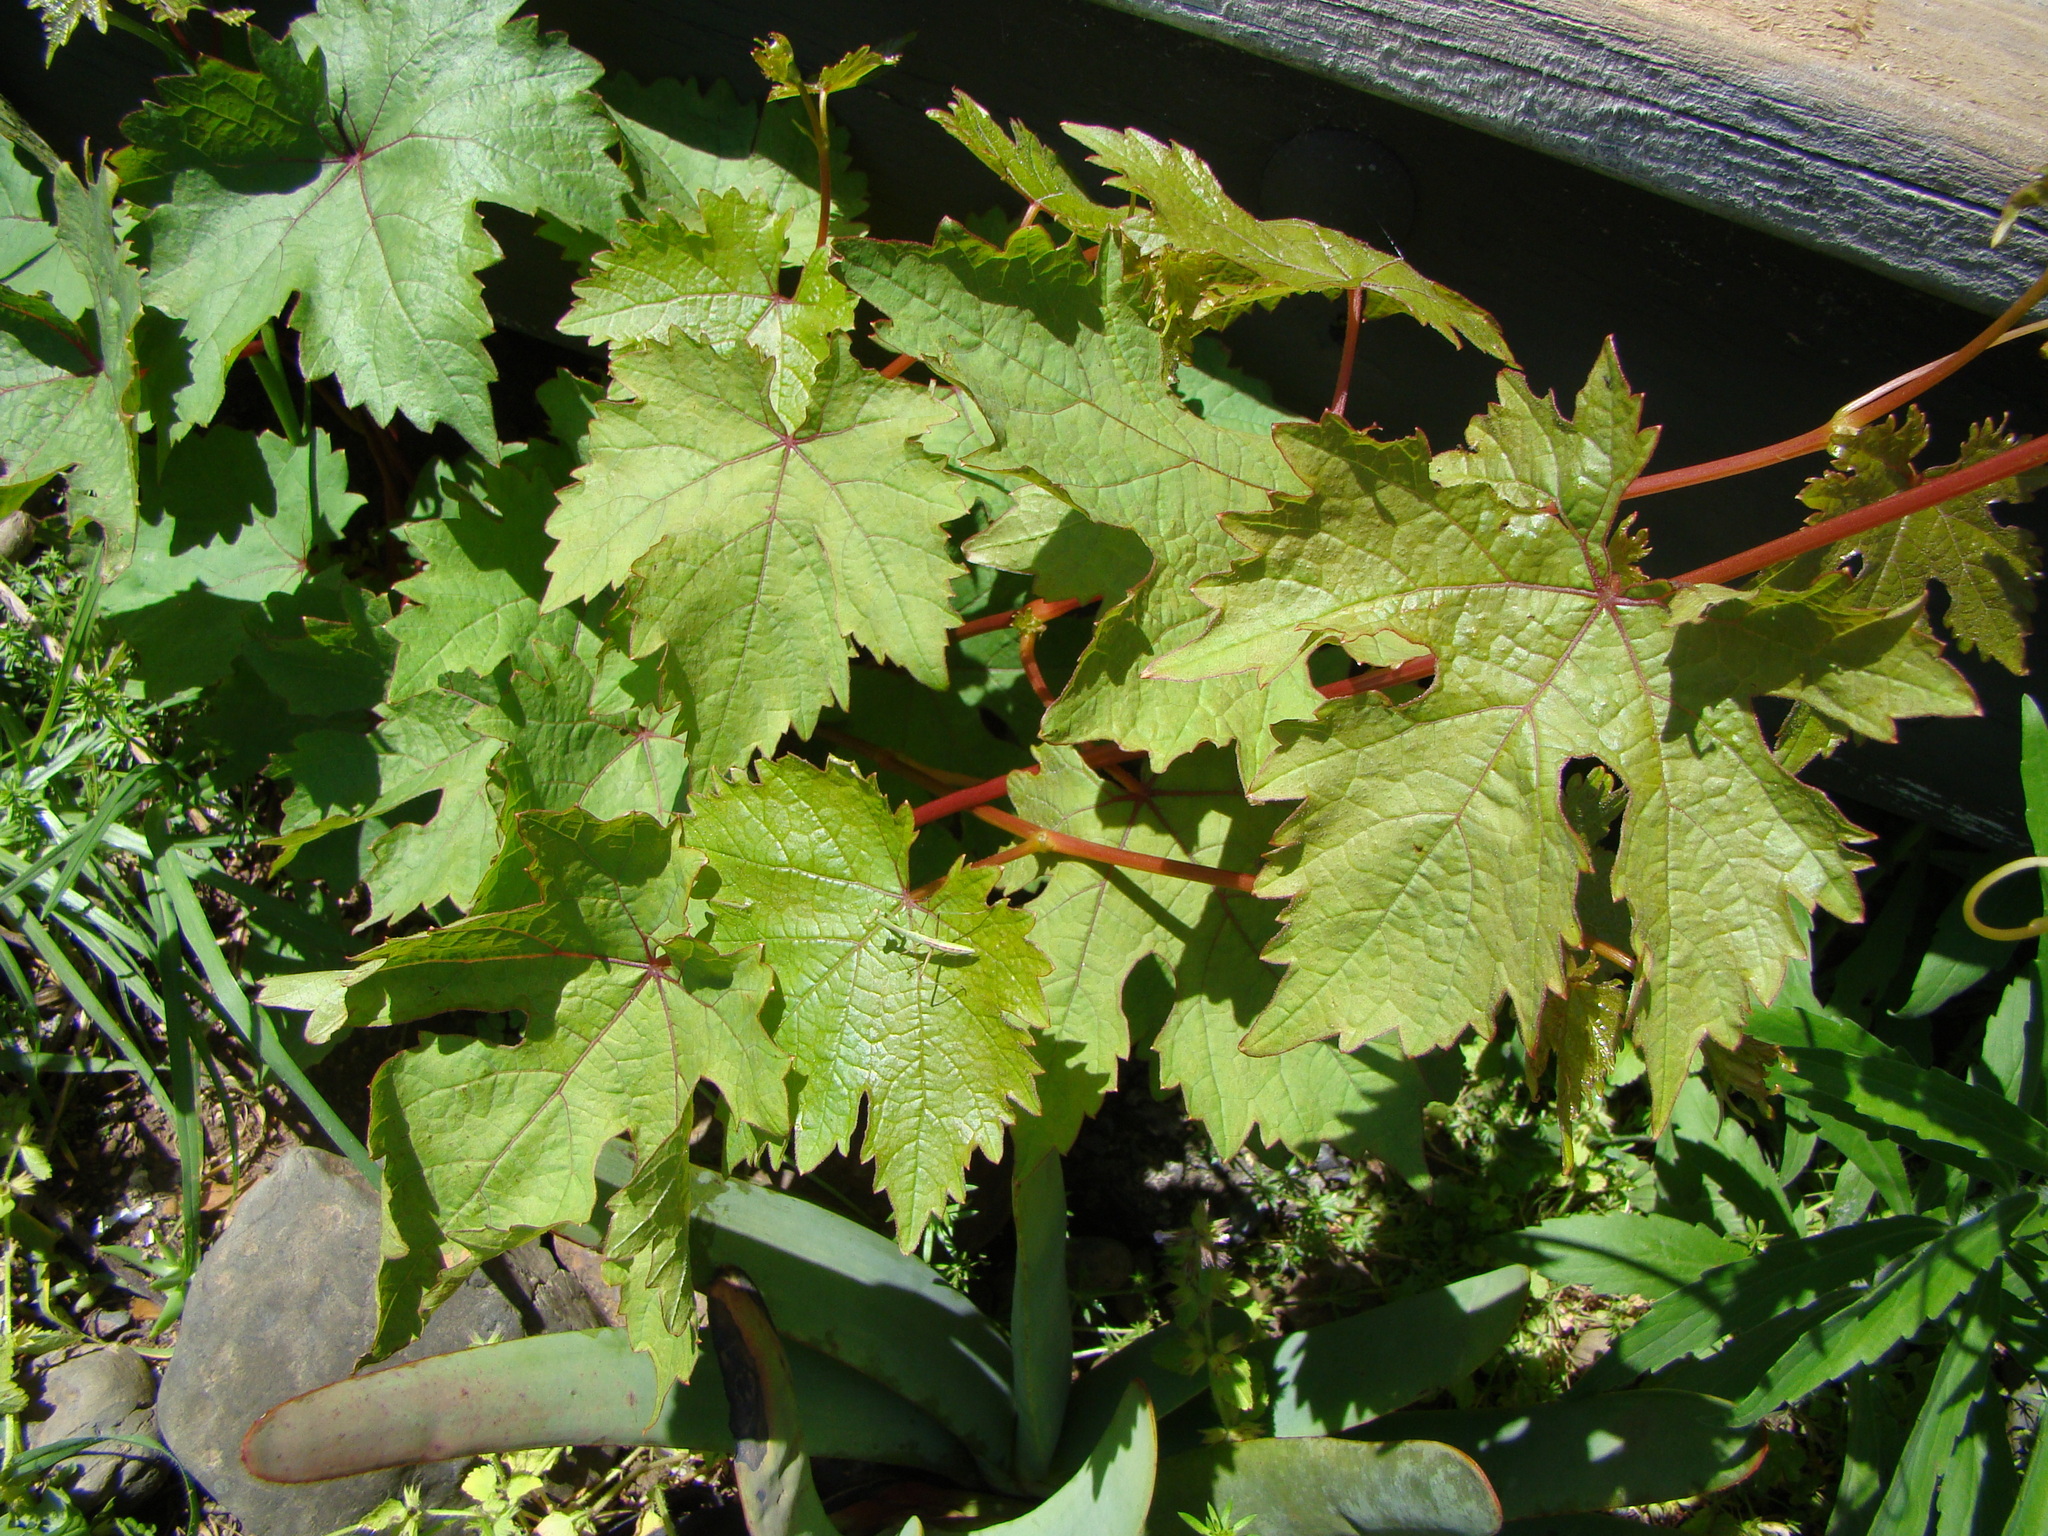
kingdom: Plantae
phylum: Tracheophyta
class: Magnoliopsida
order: Vitales
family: Vitaceae
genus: Vitis
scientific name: Vitis vinifera
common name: Grape-vine
